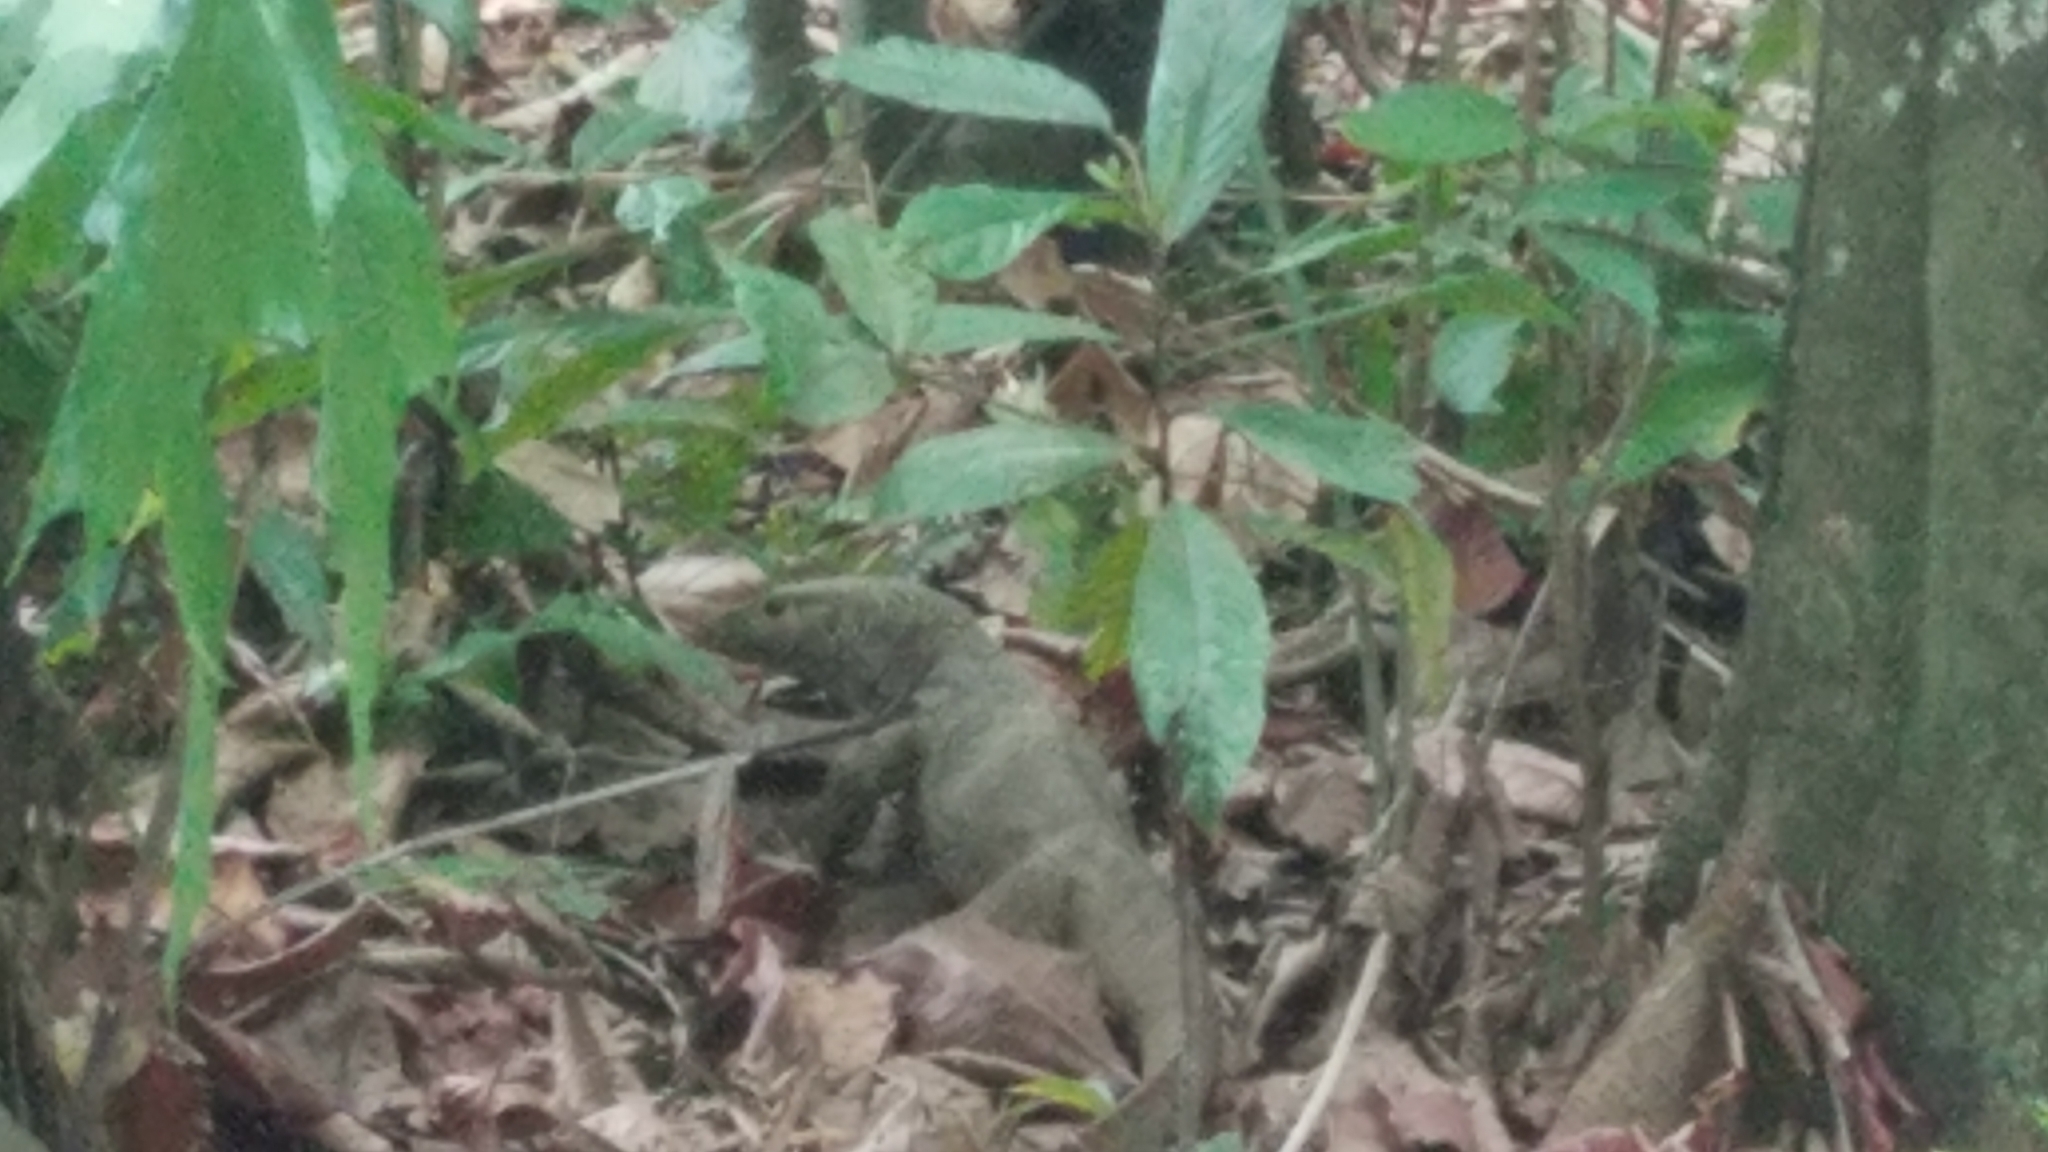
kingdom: Animalia
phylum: Chordata
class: Squamata
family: Varanidae
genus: Varanus
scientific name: Varanus nebulosus
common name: Clouded monitor
